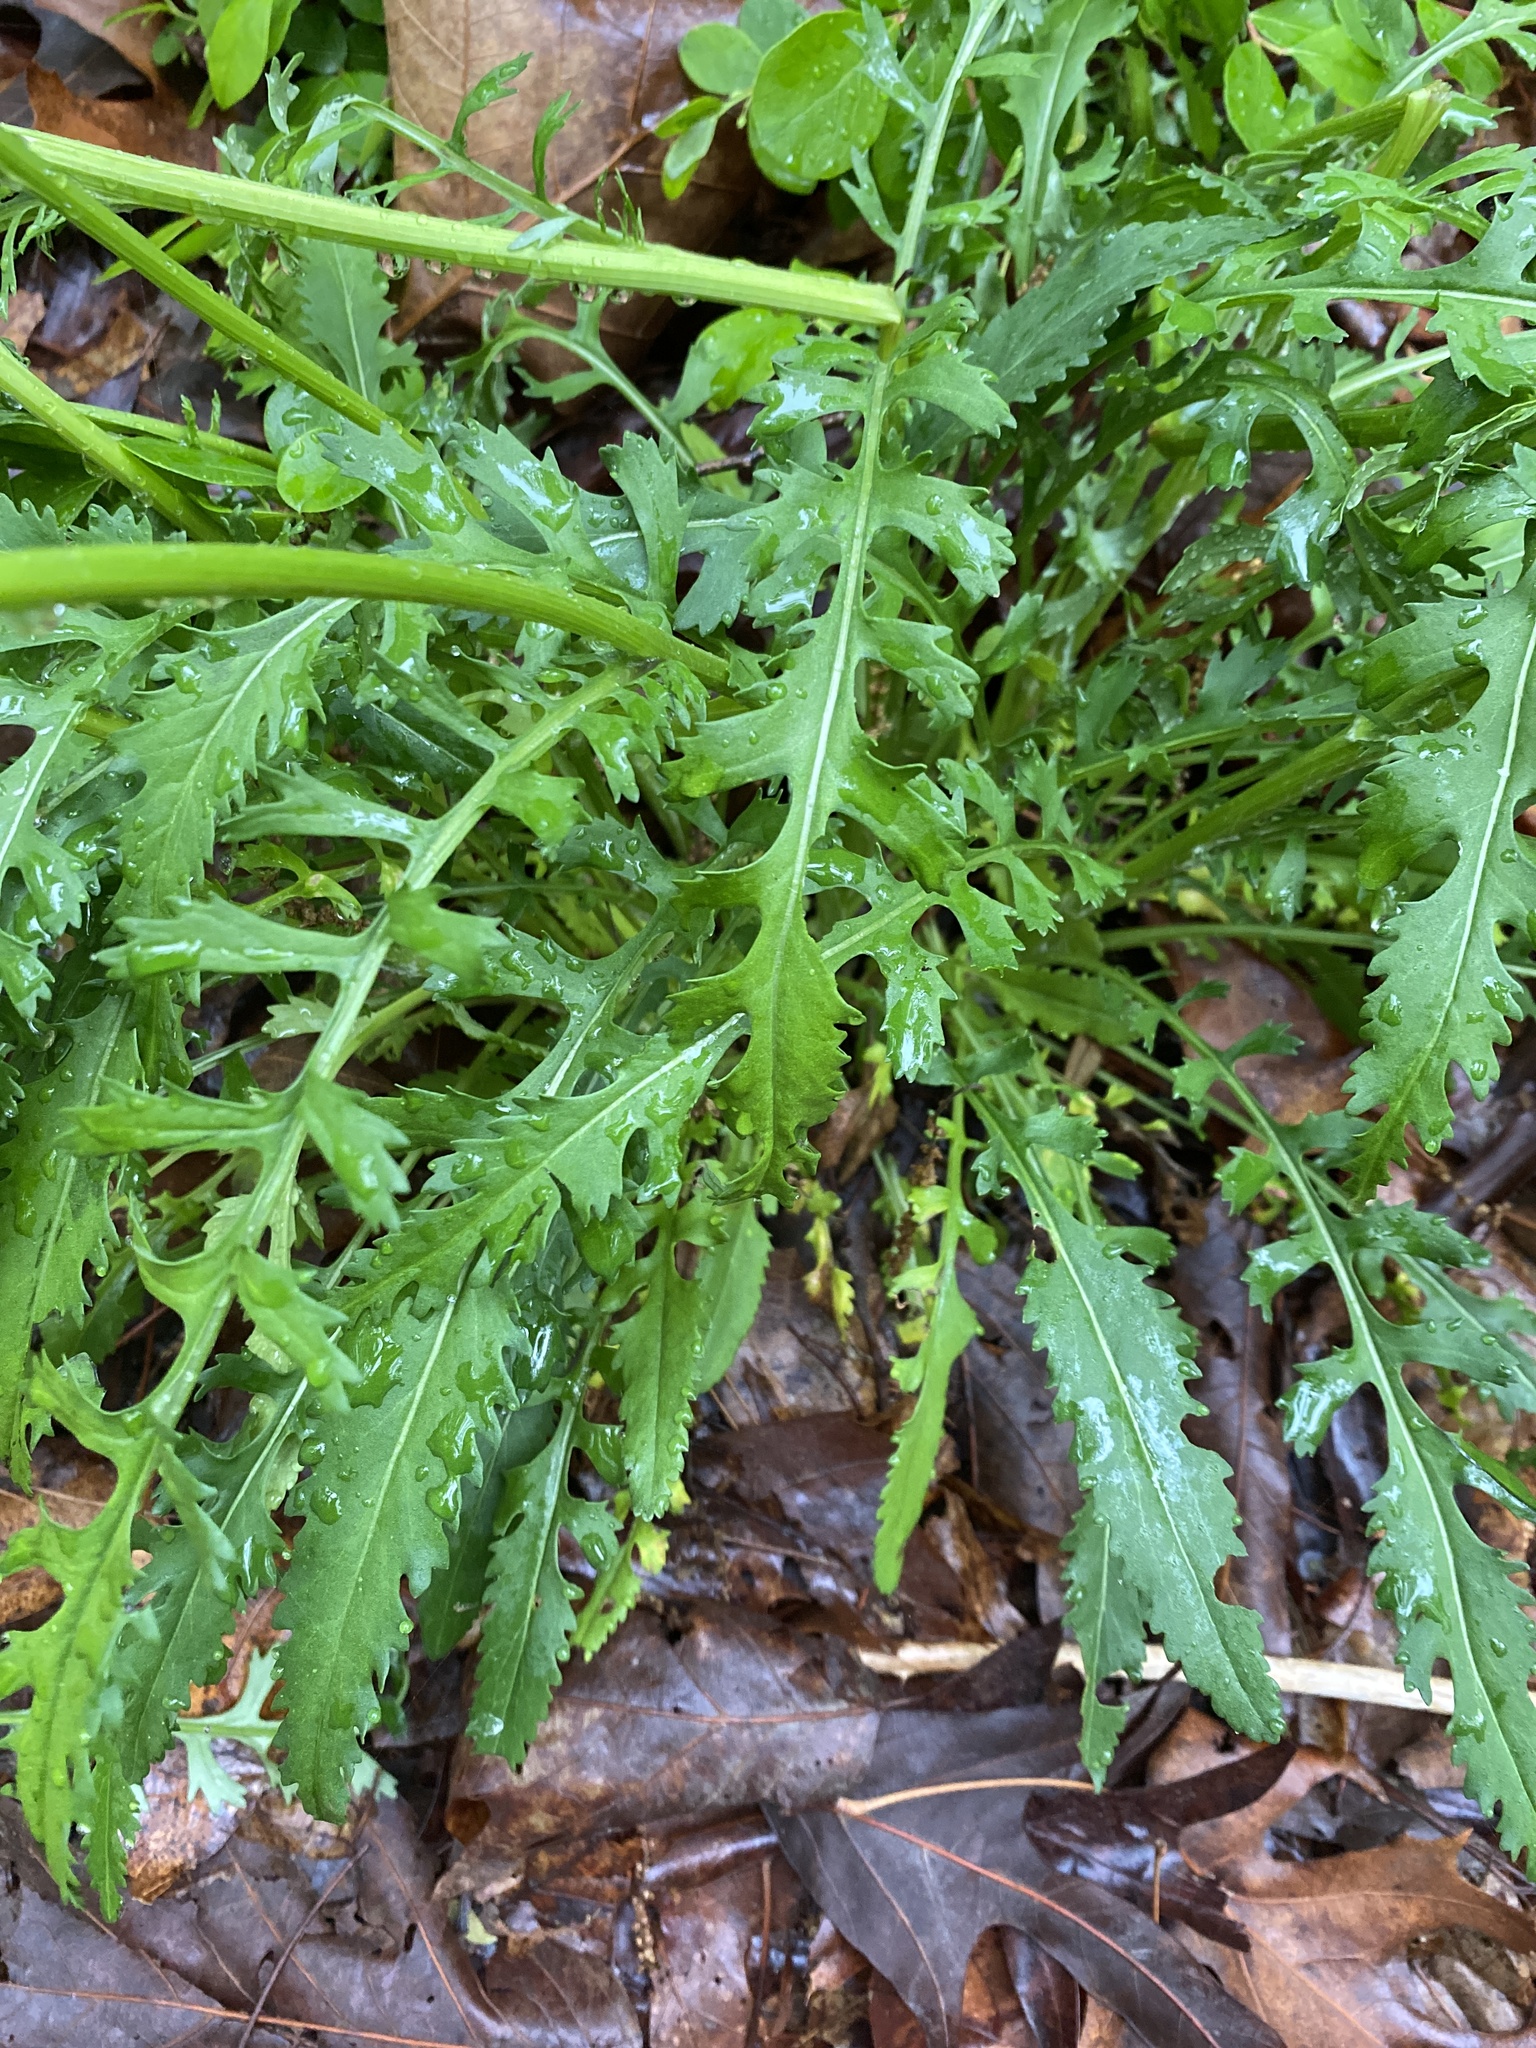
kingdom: Plantae
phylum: Tracheophyta
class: Magnoliopsida
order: Asterales
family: Asteraceae
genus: Packera
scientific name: Packera anonyma
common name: Small ragwort
